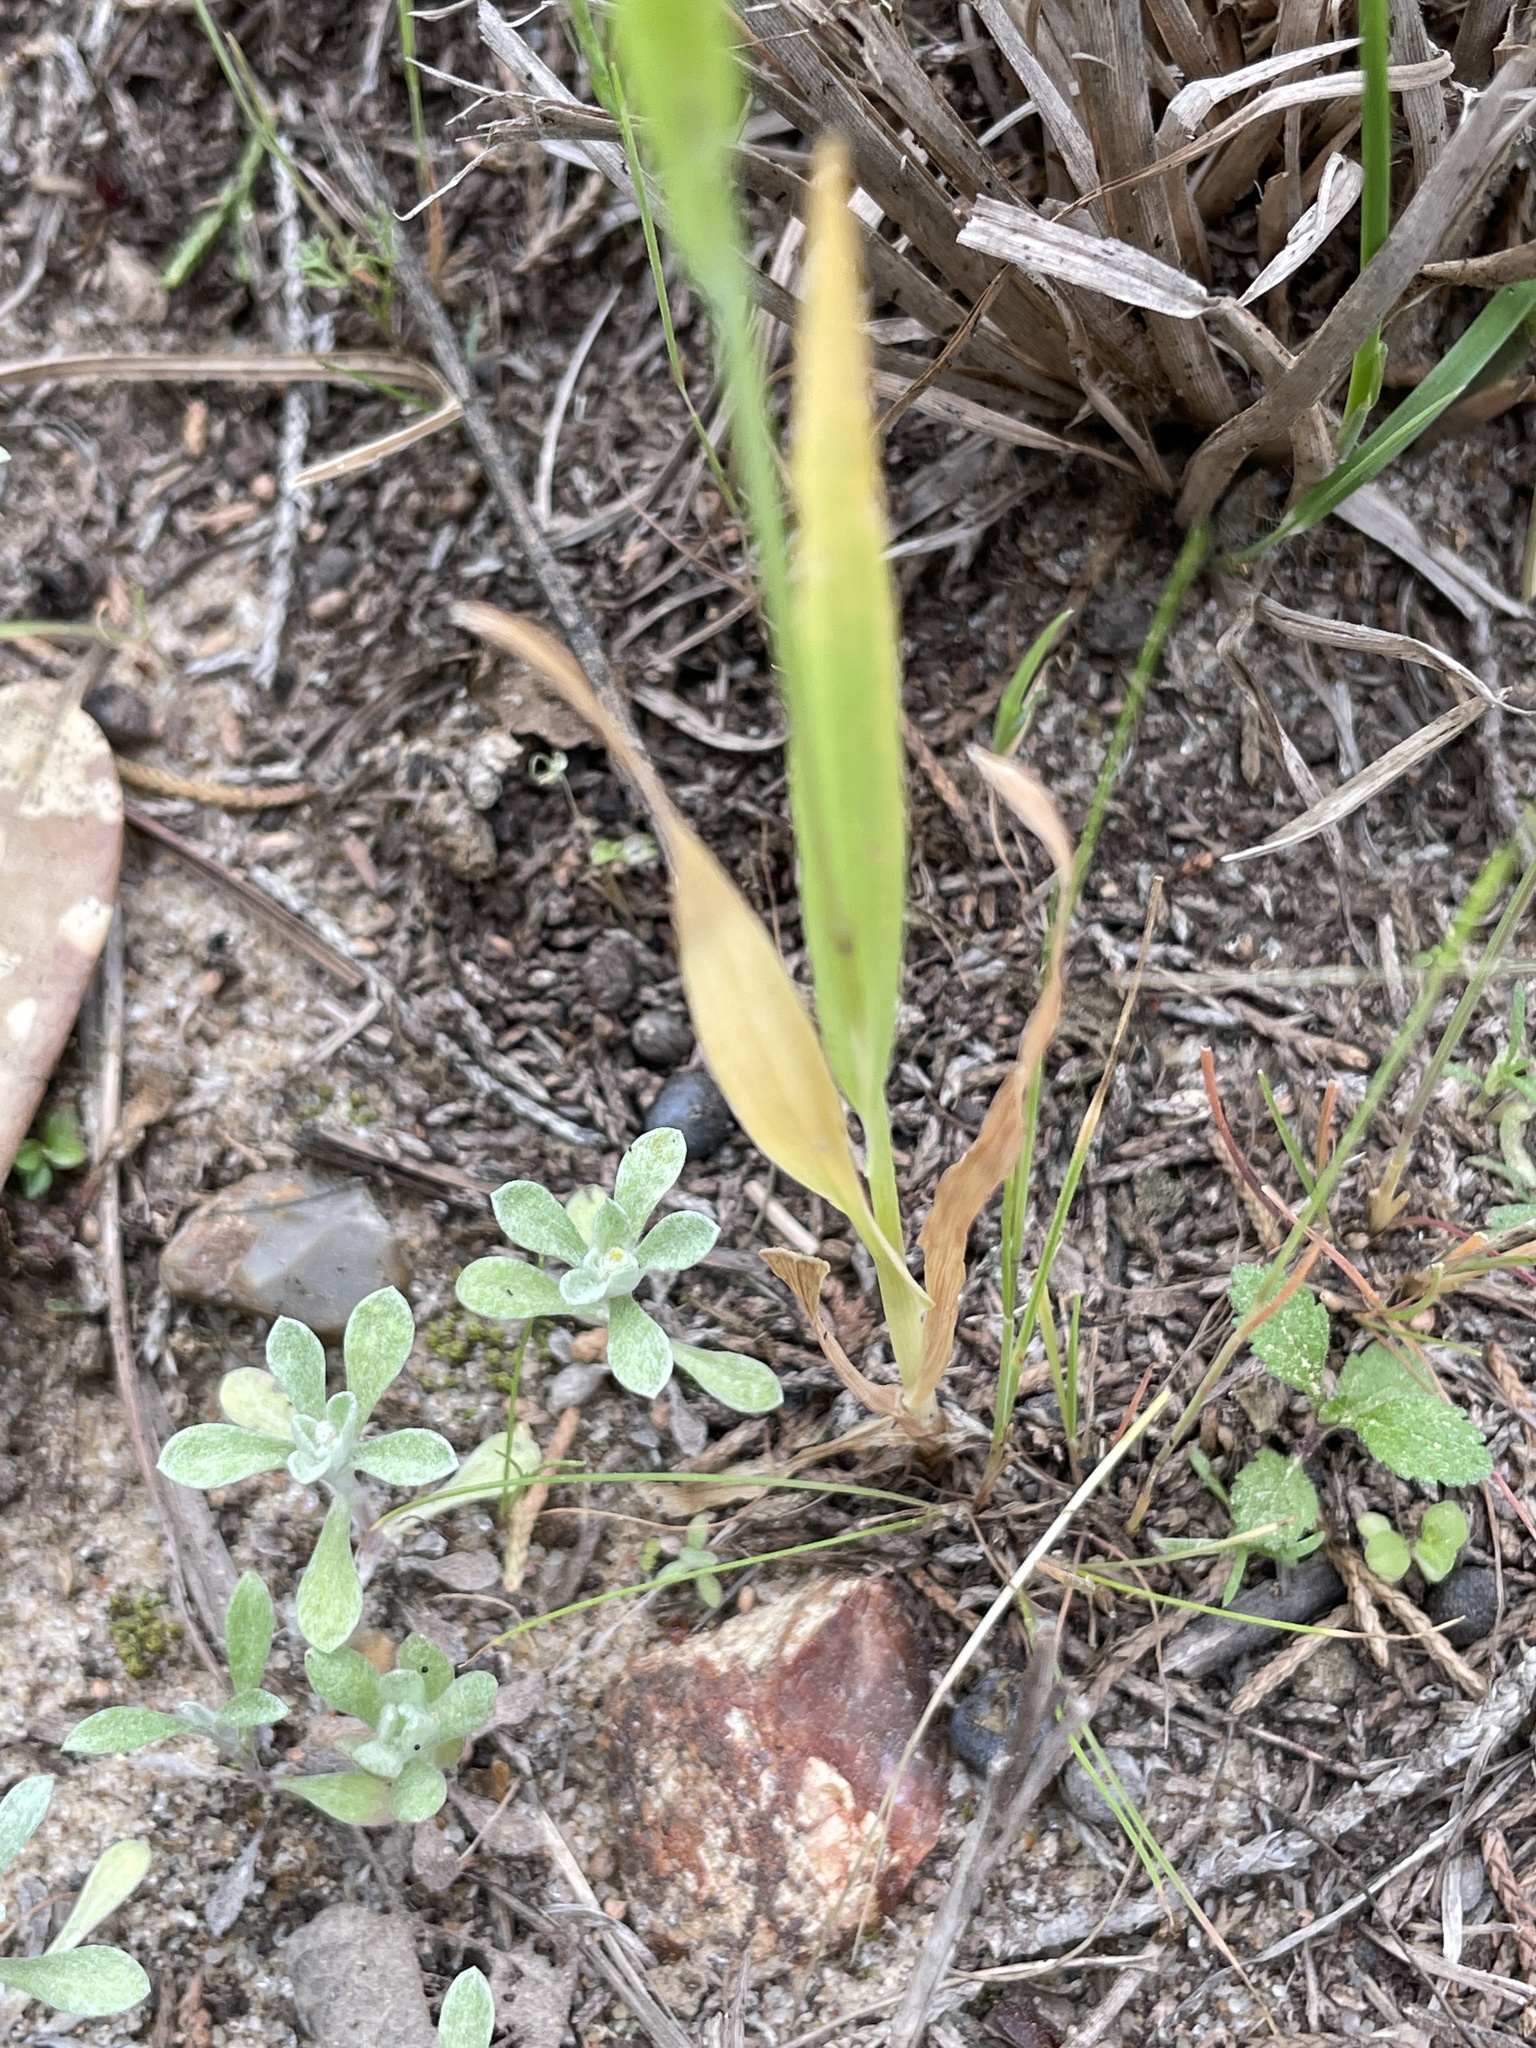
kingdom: Plantae
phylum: Tracheophyta
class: Liliopsida
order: Poales
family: Poaceae
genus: Briza
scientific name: Briza minor
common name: Lesser quaking-grass
